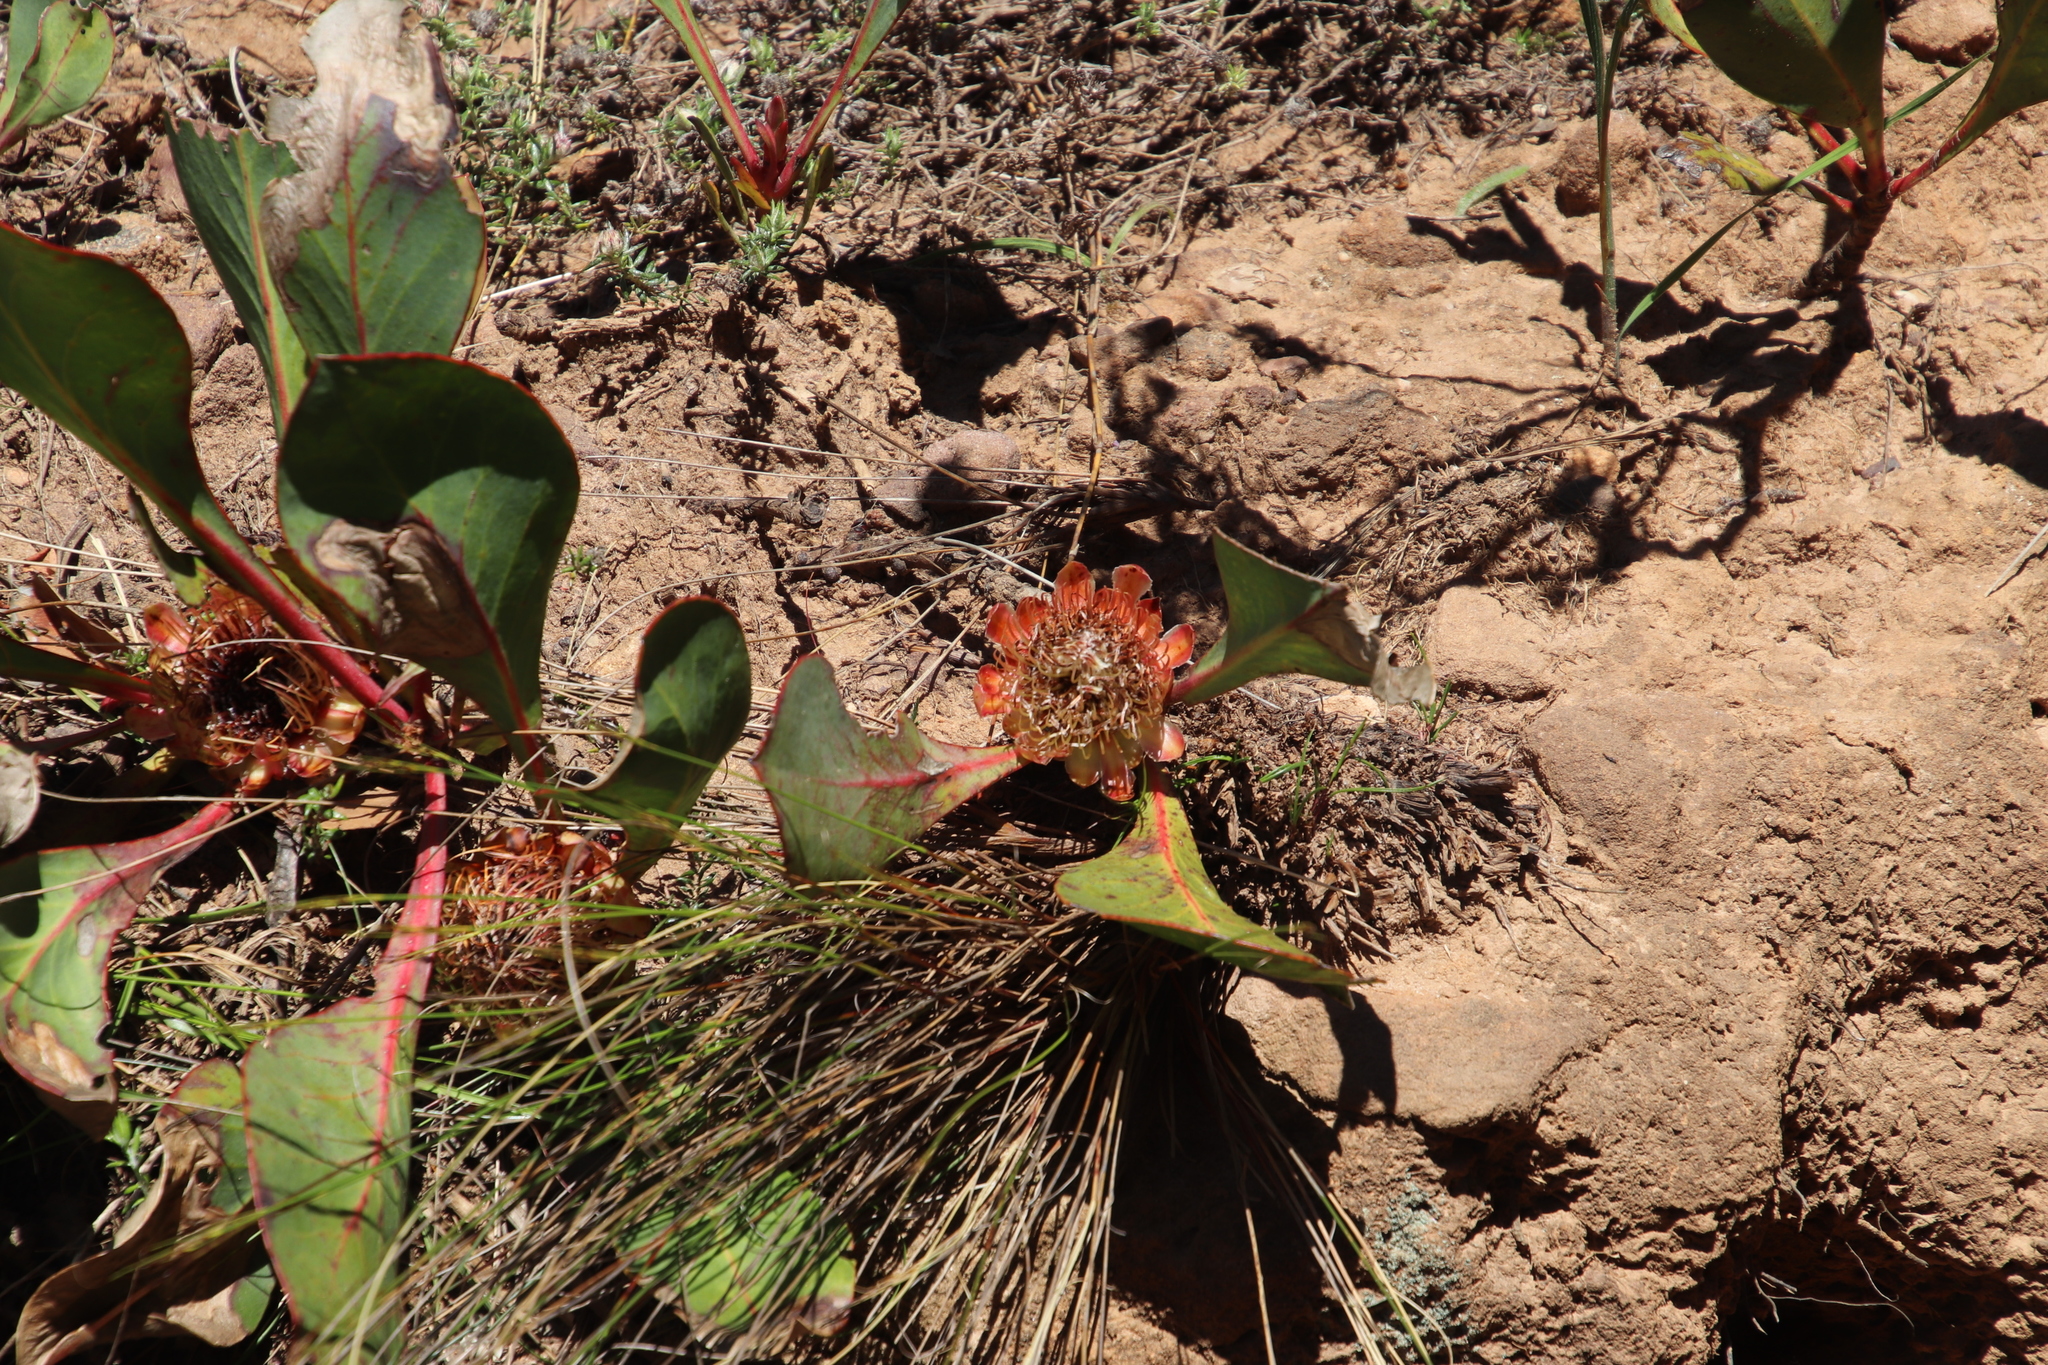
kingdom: Plantae
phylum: Tracheophyta
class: Liliopsida
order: Asparagales
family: Iridaceae
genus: Gladiolus
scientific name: Gladiolus hirsutus
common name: Small pink afrikaner
